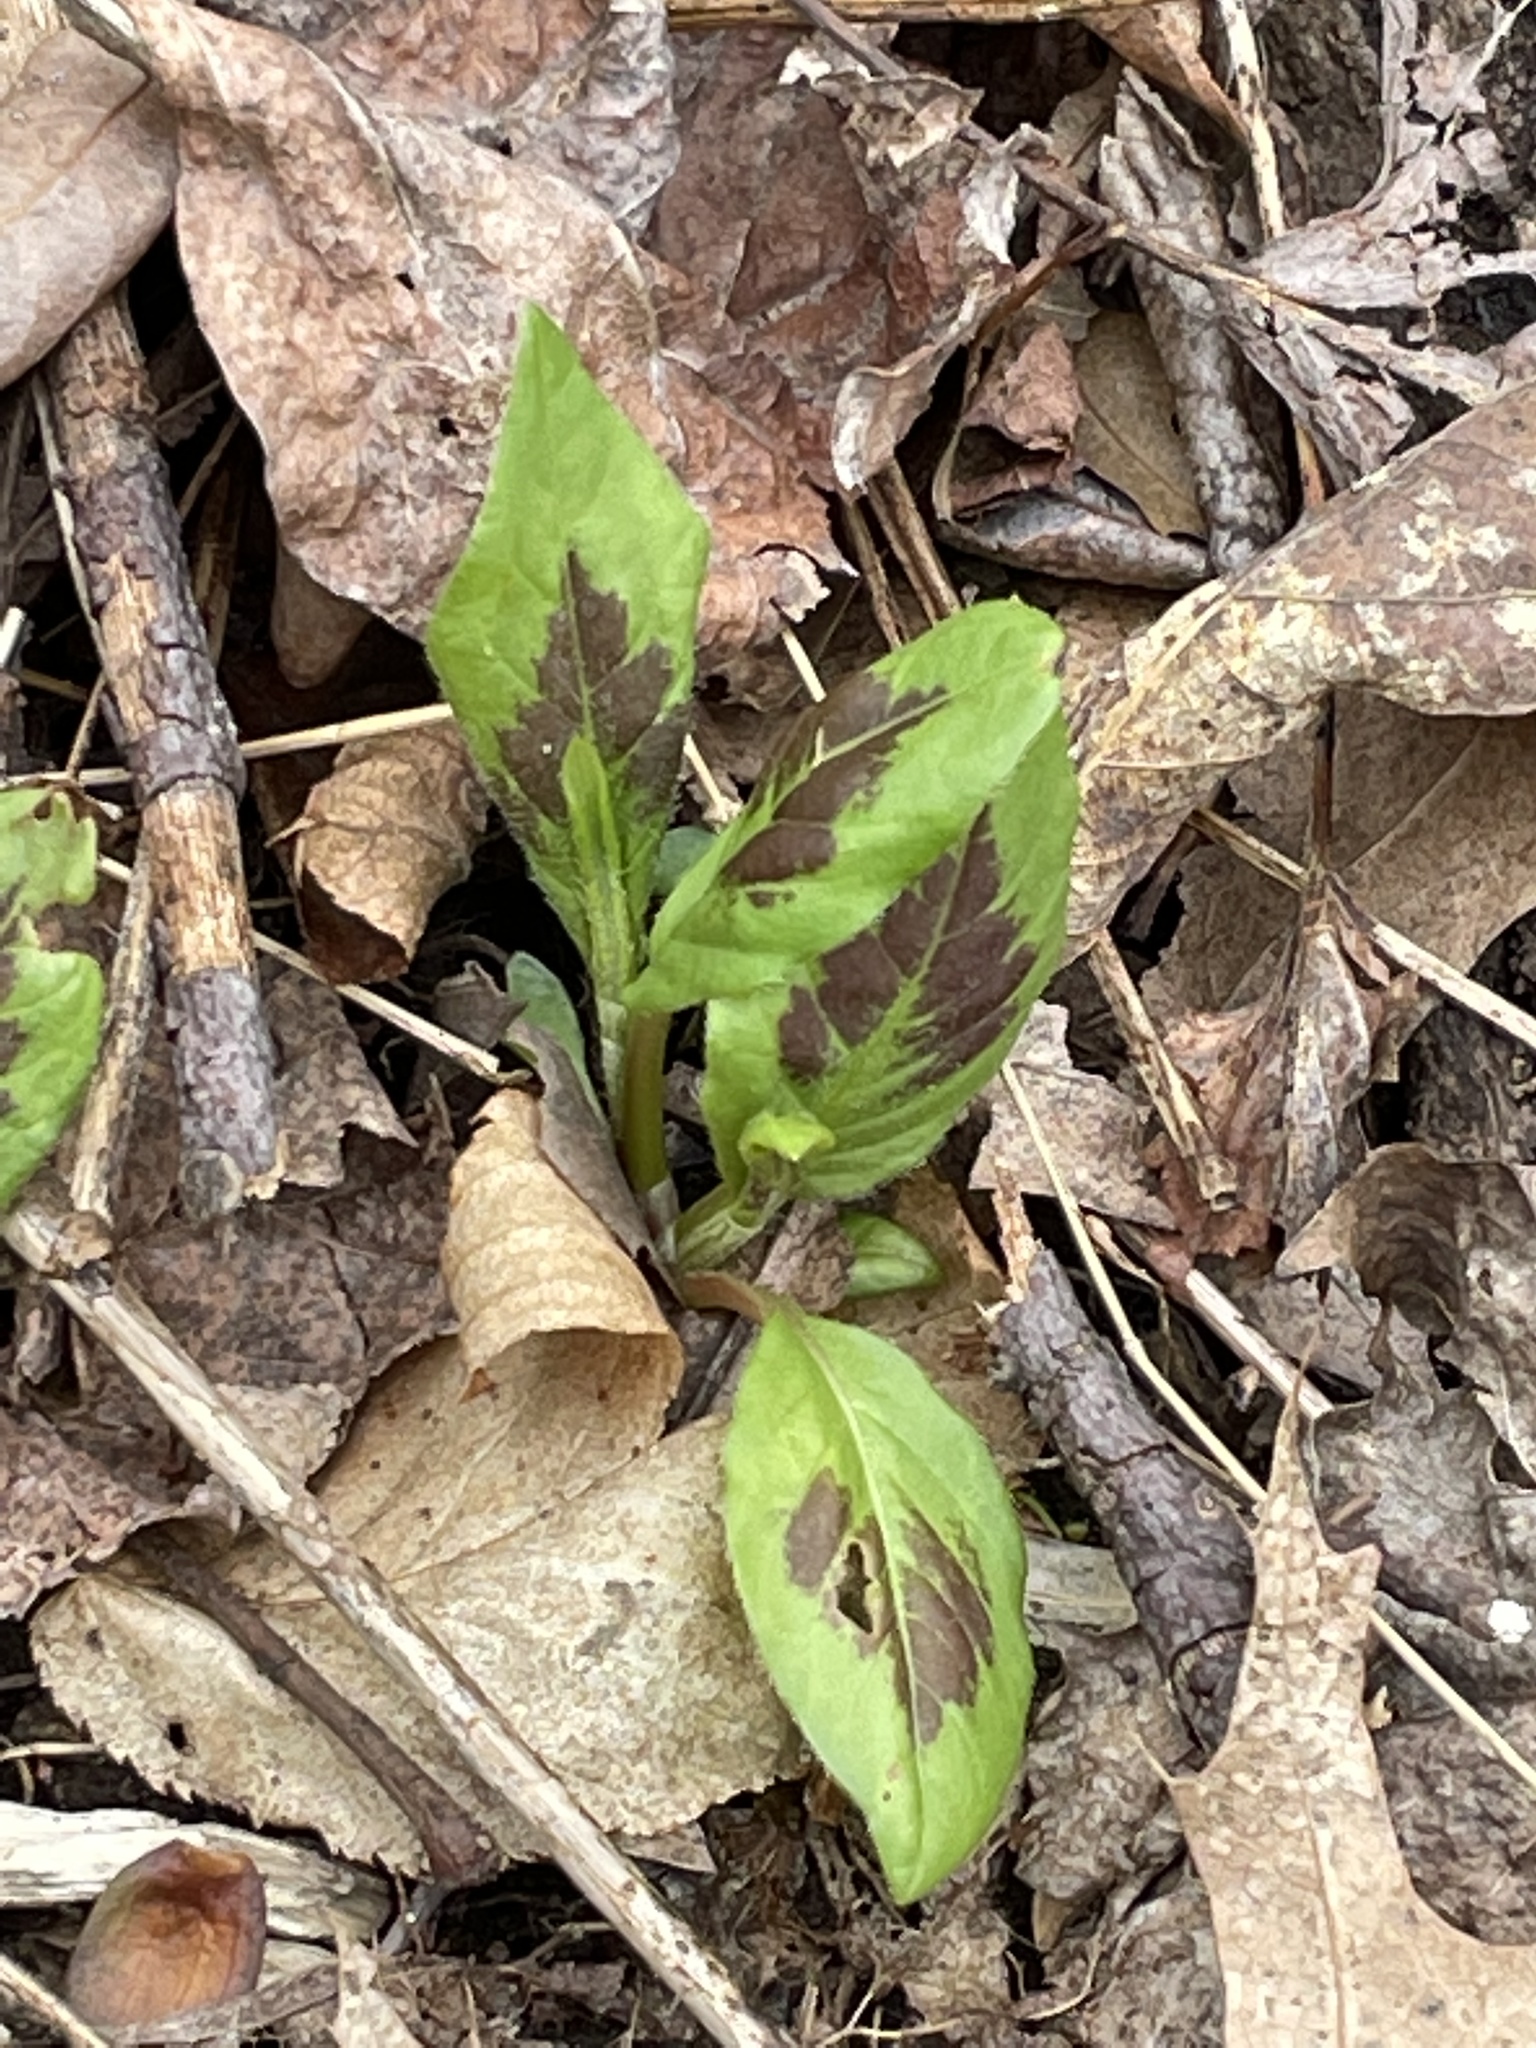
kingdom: Plantae
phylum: Tracheophyta
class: Magnoliopsida
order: Caryophyllales
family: Polygonaceae
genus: Persicaria
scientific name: Persicaria virginiana
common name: Jumpseed
